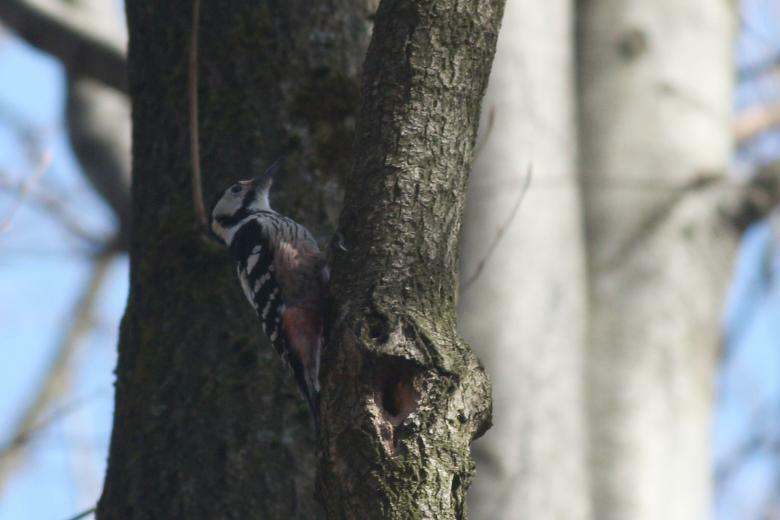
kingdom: Animalia
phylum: Chordata
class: Aves
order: Piciformes
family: Picidae
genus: Dendrocopos
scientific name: Dendrocopos leucotos
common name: White-backed woodpecker
